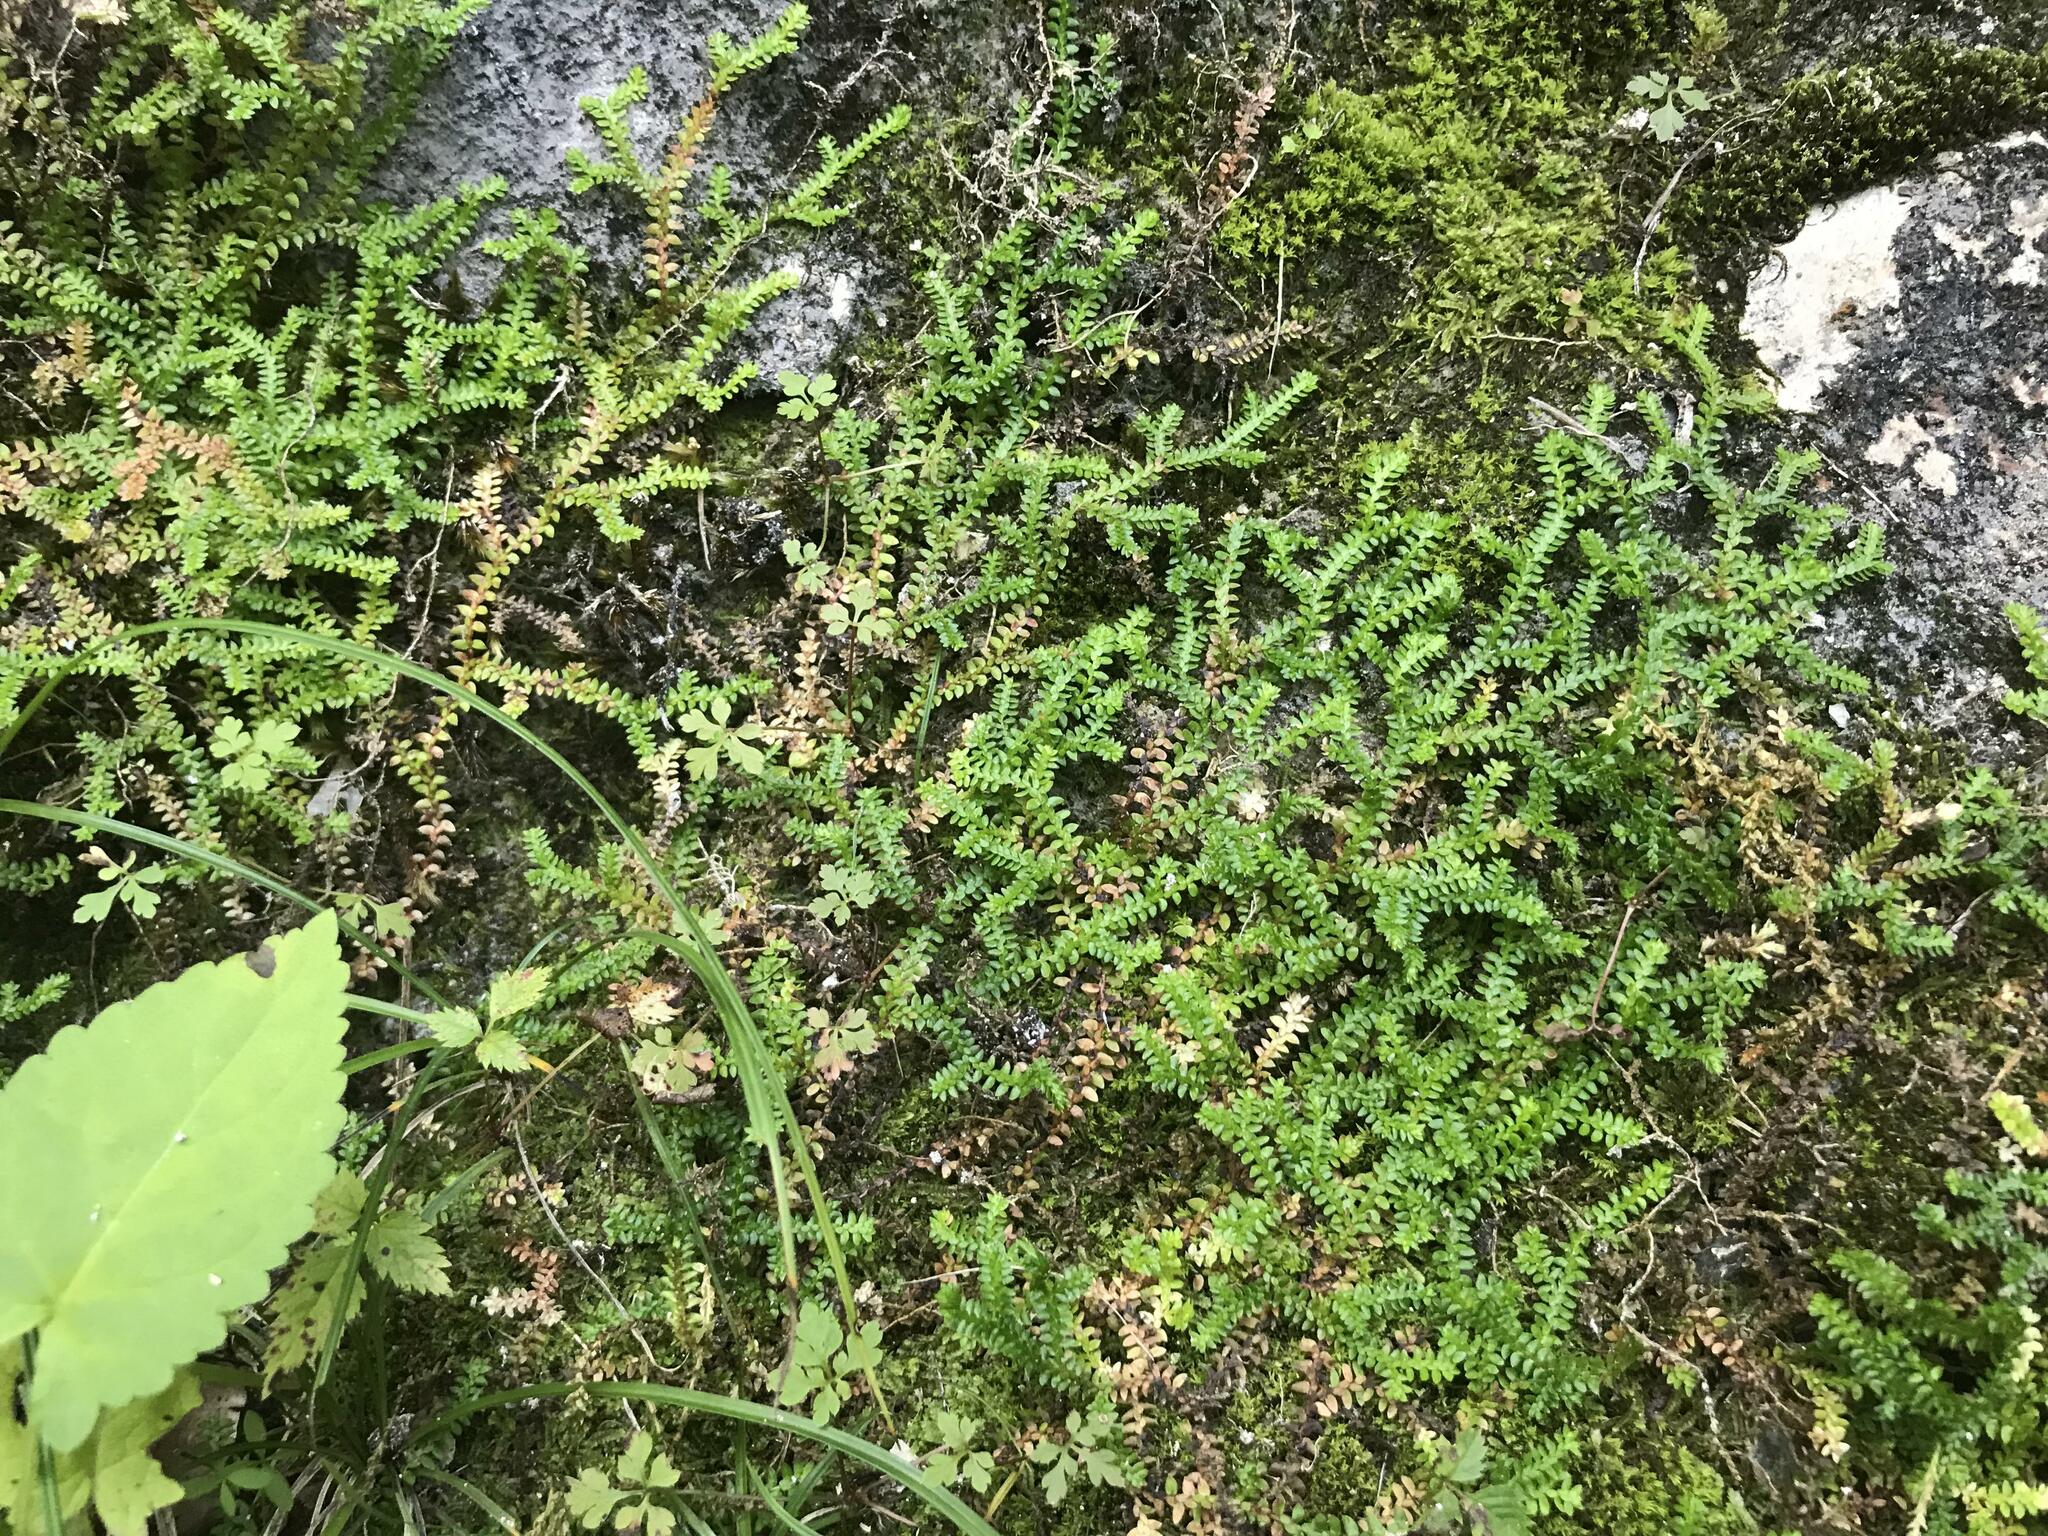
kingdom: Plantae
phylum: Tracheophyta
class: Lycopodiopsida
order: Selaginellales
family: Selaginellaceae
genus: Selaginella
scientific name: Selaginella helvetica
